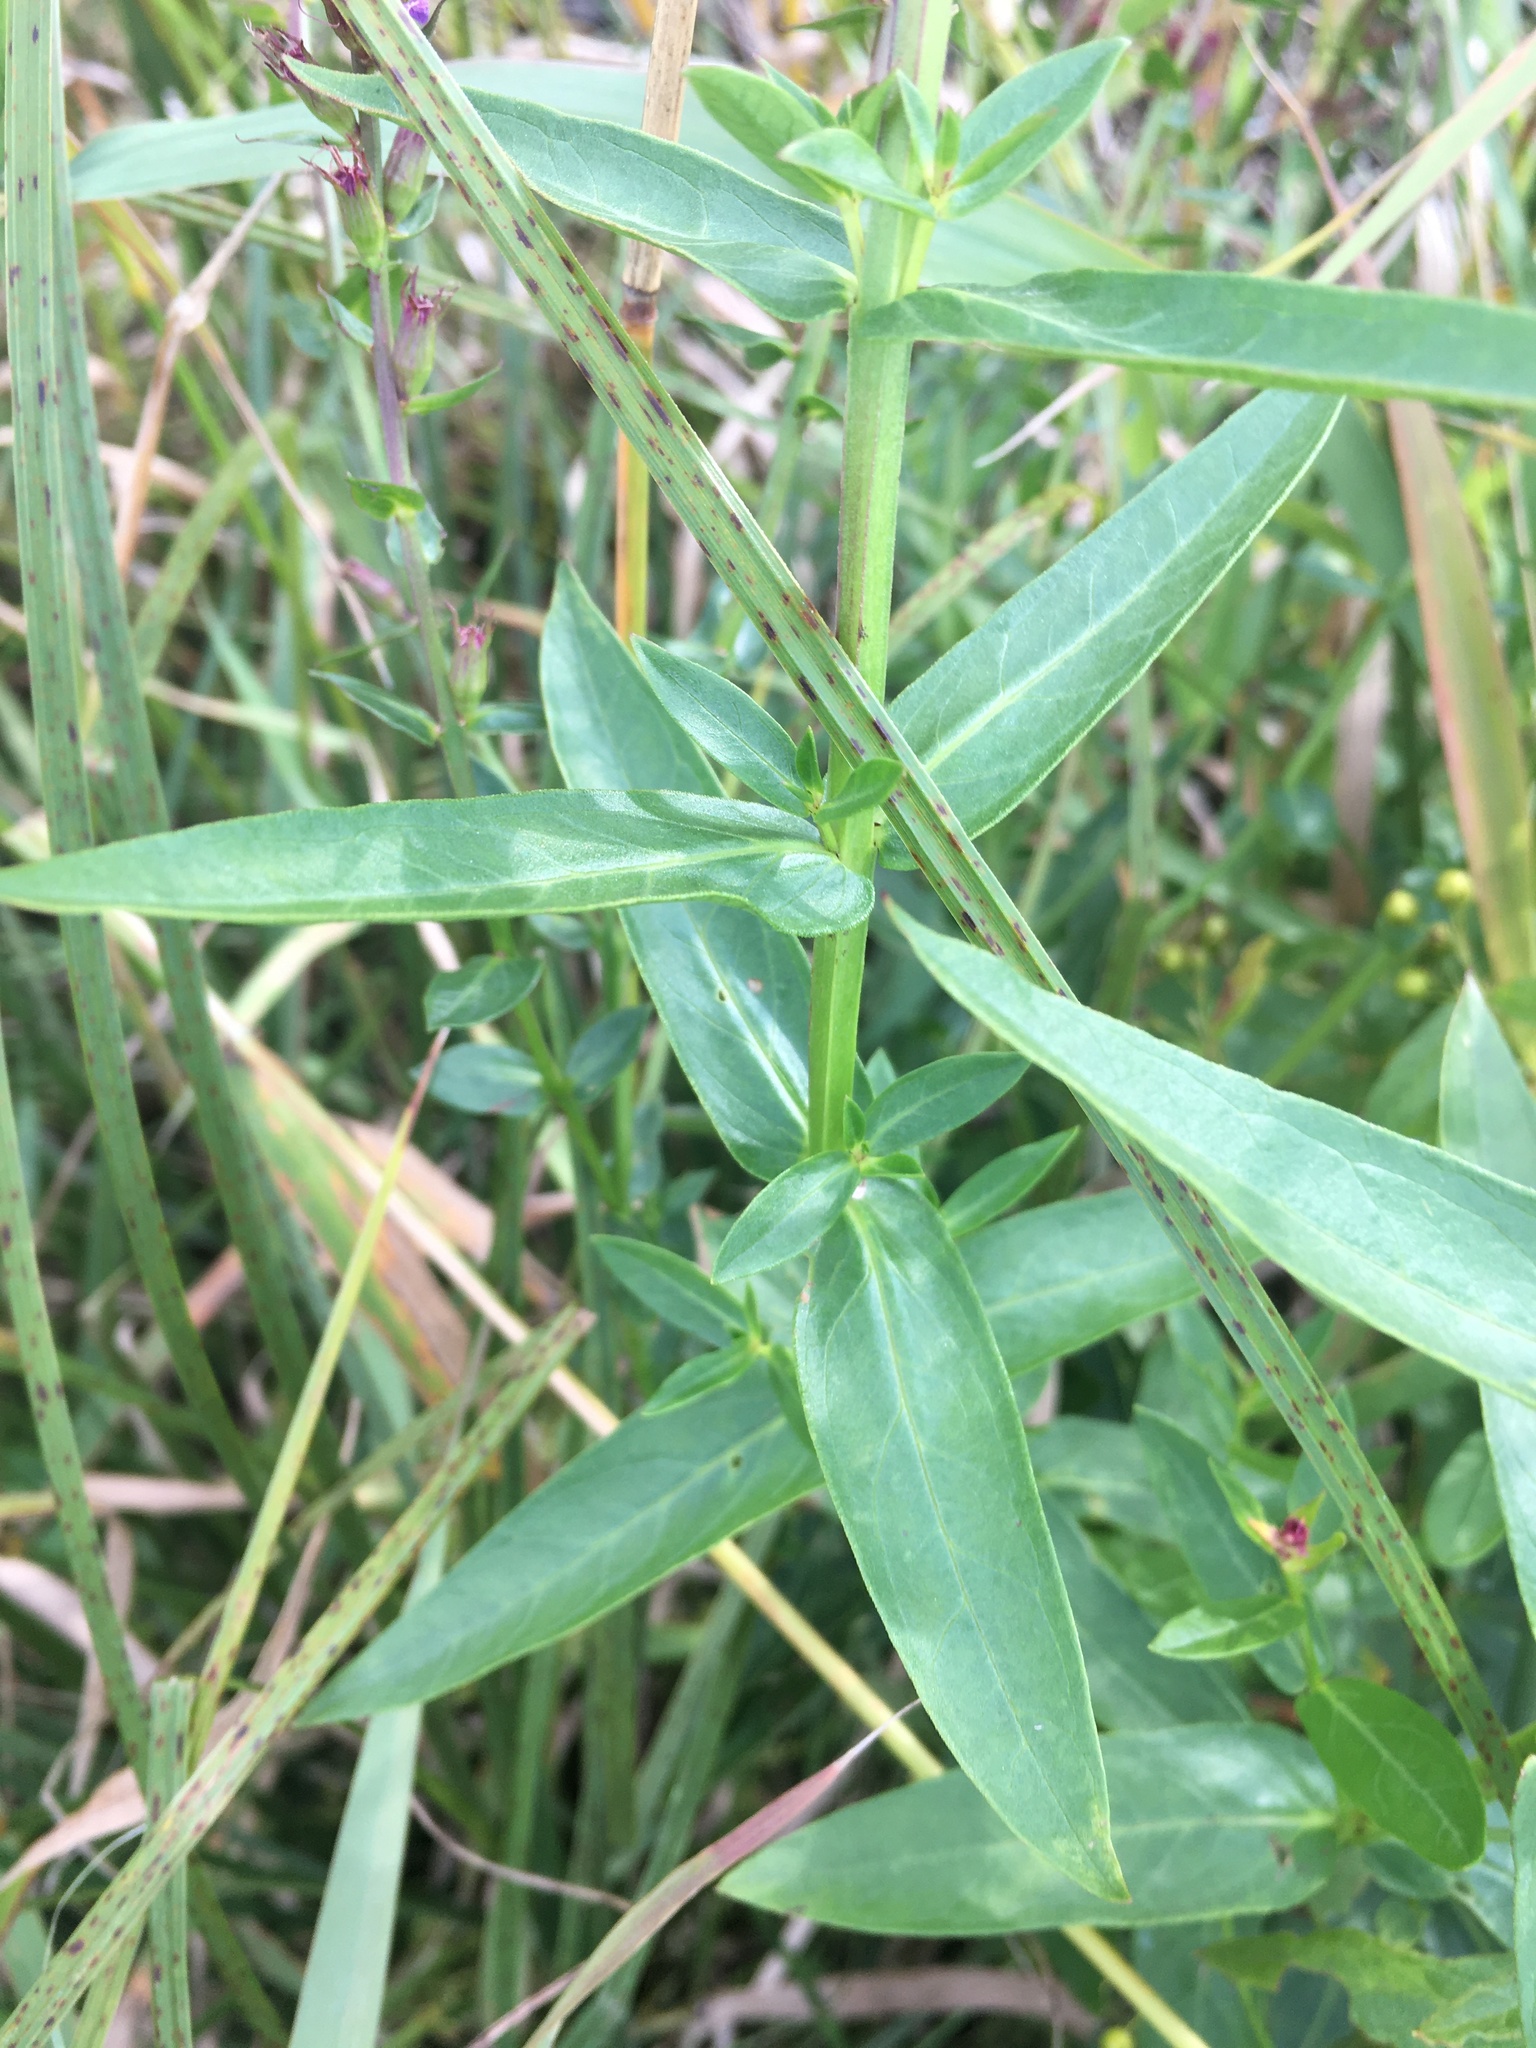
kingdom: Plantae
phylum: Tracheophyta
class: Magnoliopsida
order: Myrtales
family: Lythraceae
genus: Lythrum
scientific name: Lythrum salicaria
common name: Purple loosestrife
